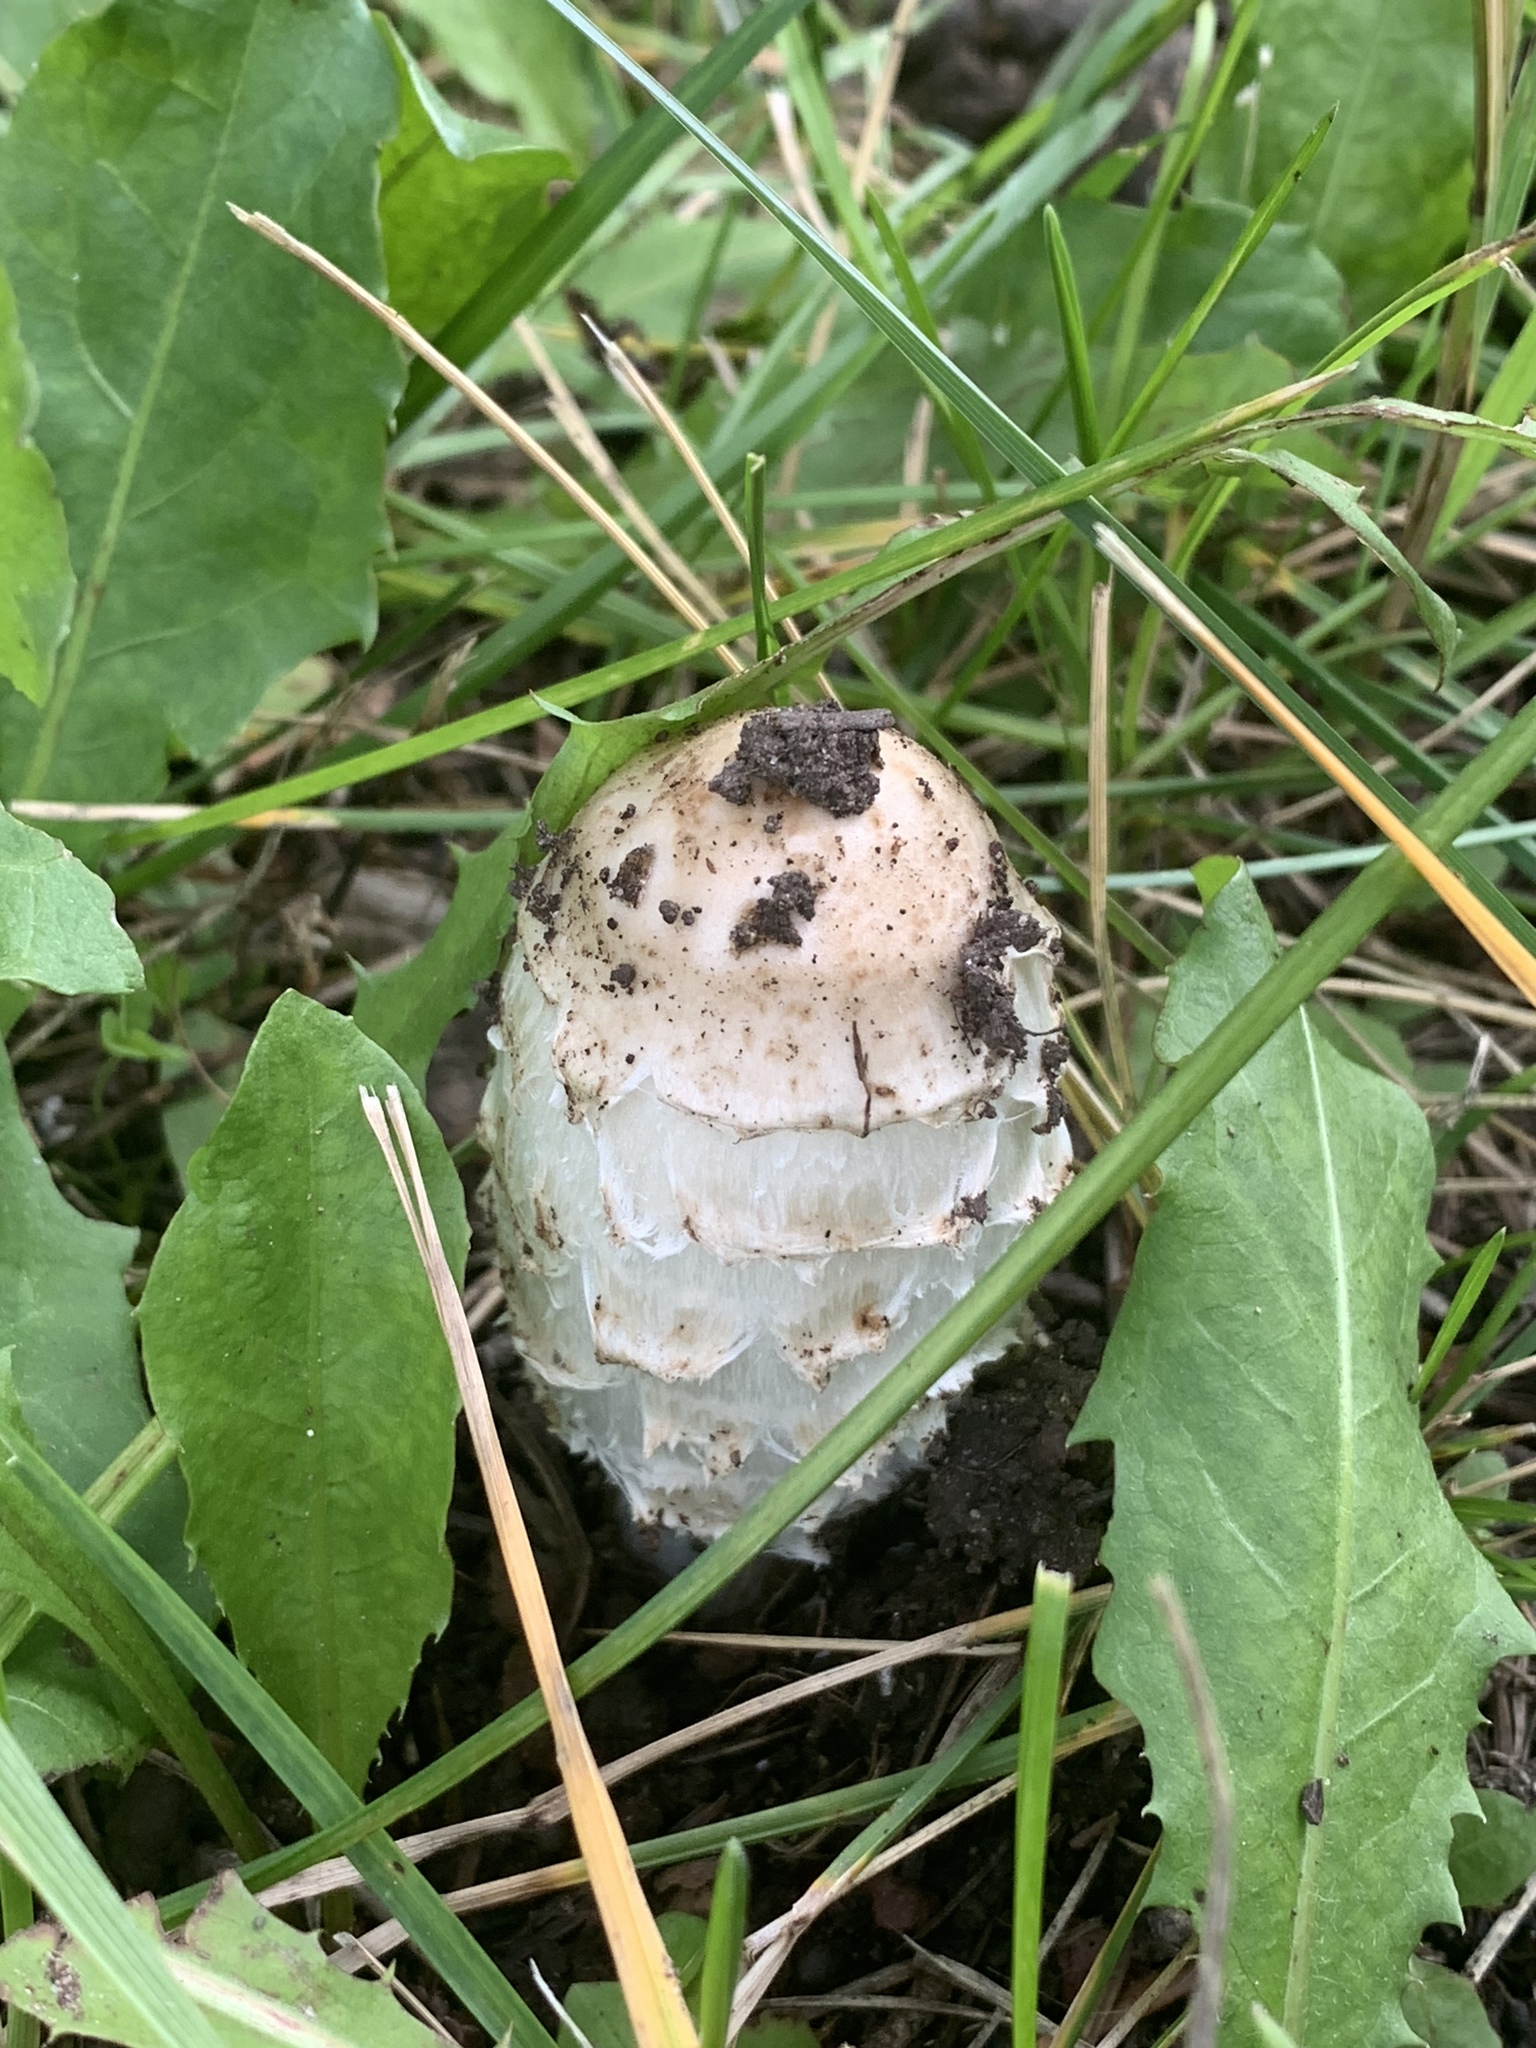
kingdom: Fungi
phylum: Basidiomycota
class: Agaricomycetes
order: Agaricales
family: Agaricaceae
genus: Coprinus
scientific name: Coprinus comatus
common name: Lawyer's wig
